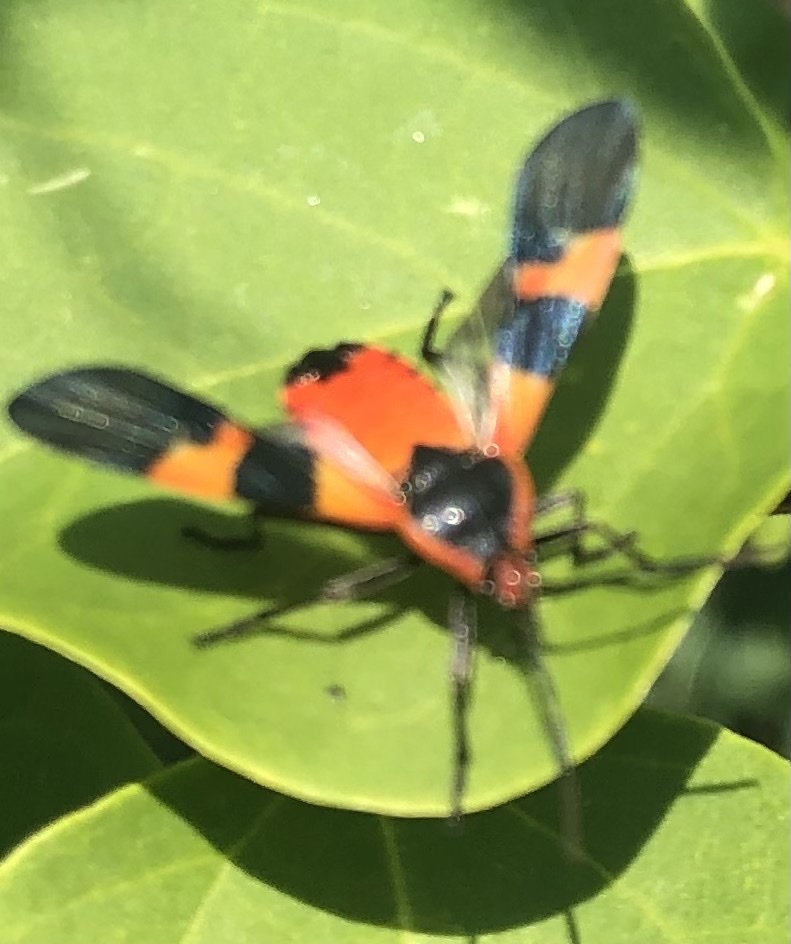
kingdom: Animalia
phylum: Arthropoda
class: Insecta
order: Hemiptera
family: Lygaeidae
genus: Oncopeltus
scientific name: Oncopeltus fasciatus
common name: Large milkweed bug
